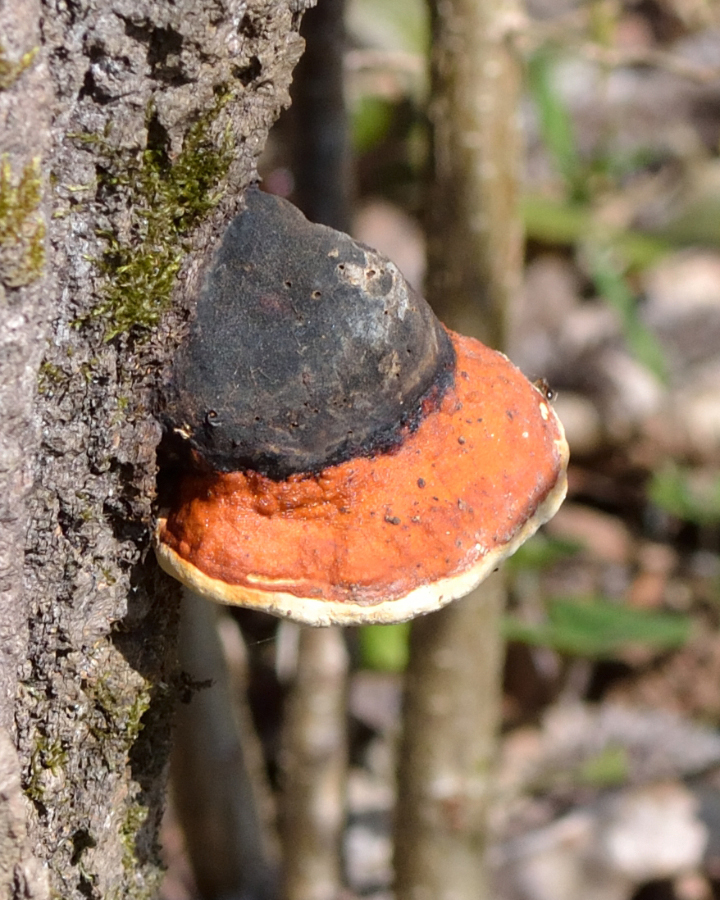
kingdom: Fungi
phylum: Basidiomycota
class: Agaricomycetes
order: Polyporales
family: Fomitopsidaceae
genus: Fomitopsis
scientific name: Fomitopsis pinicola
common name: Red-belted bracket
